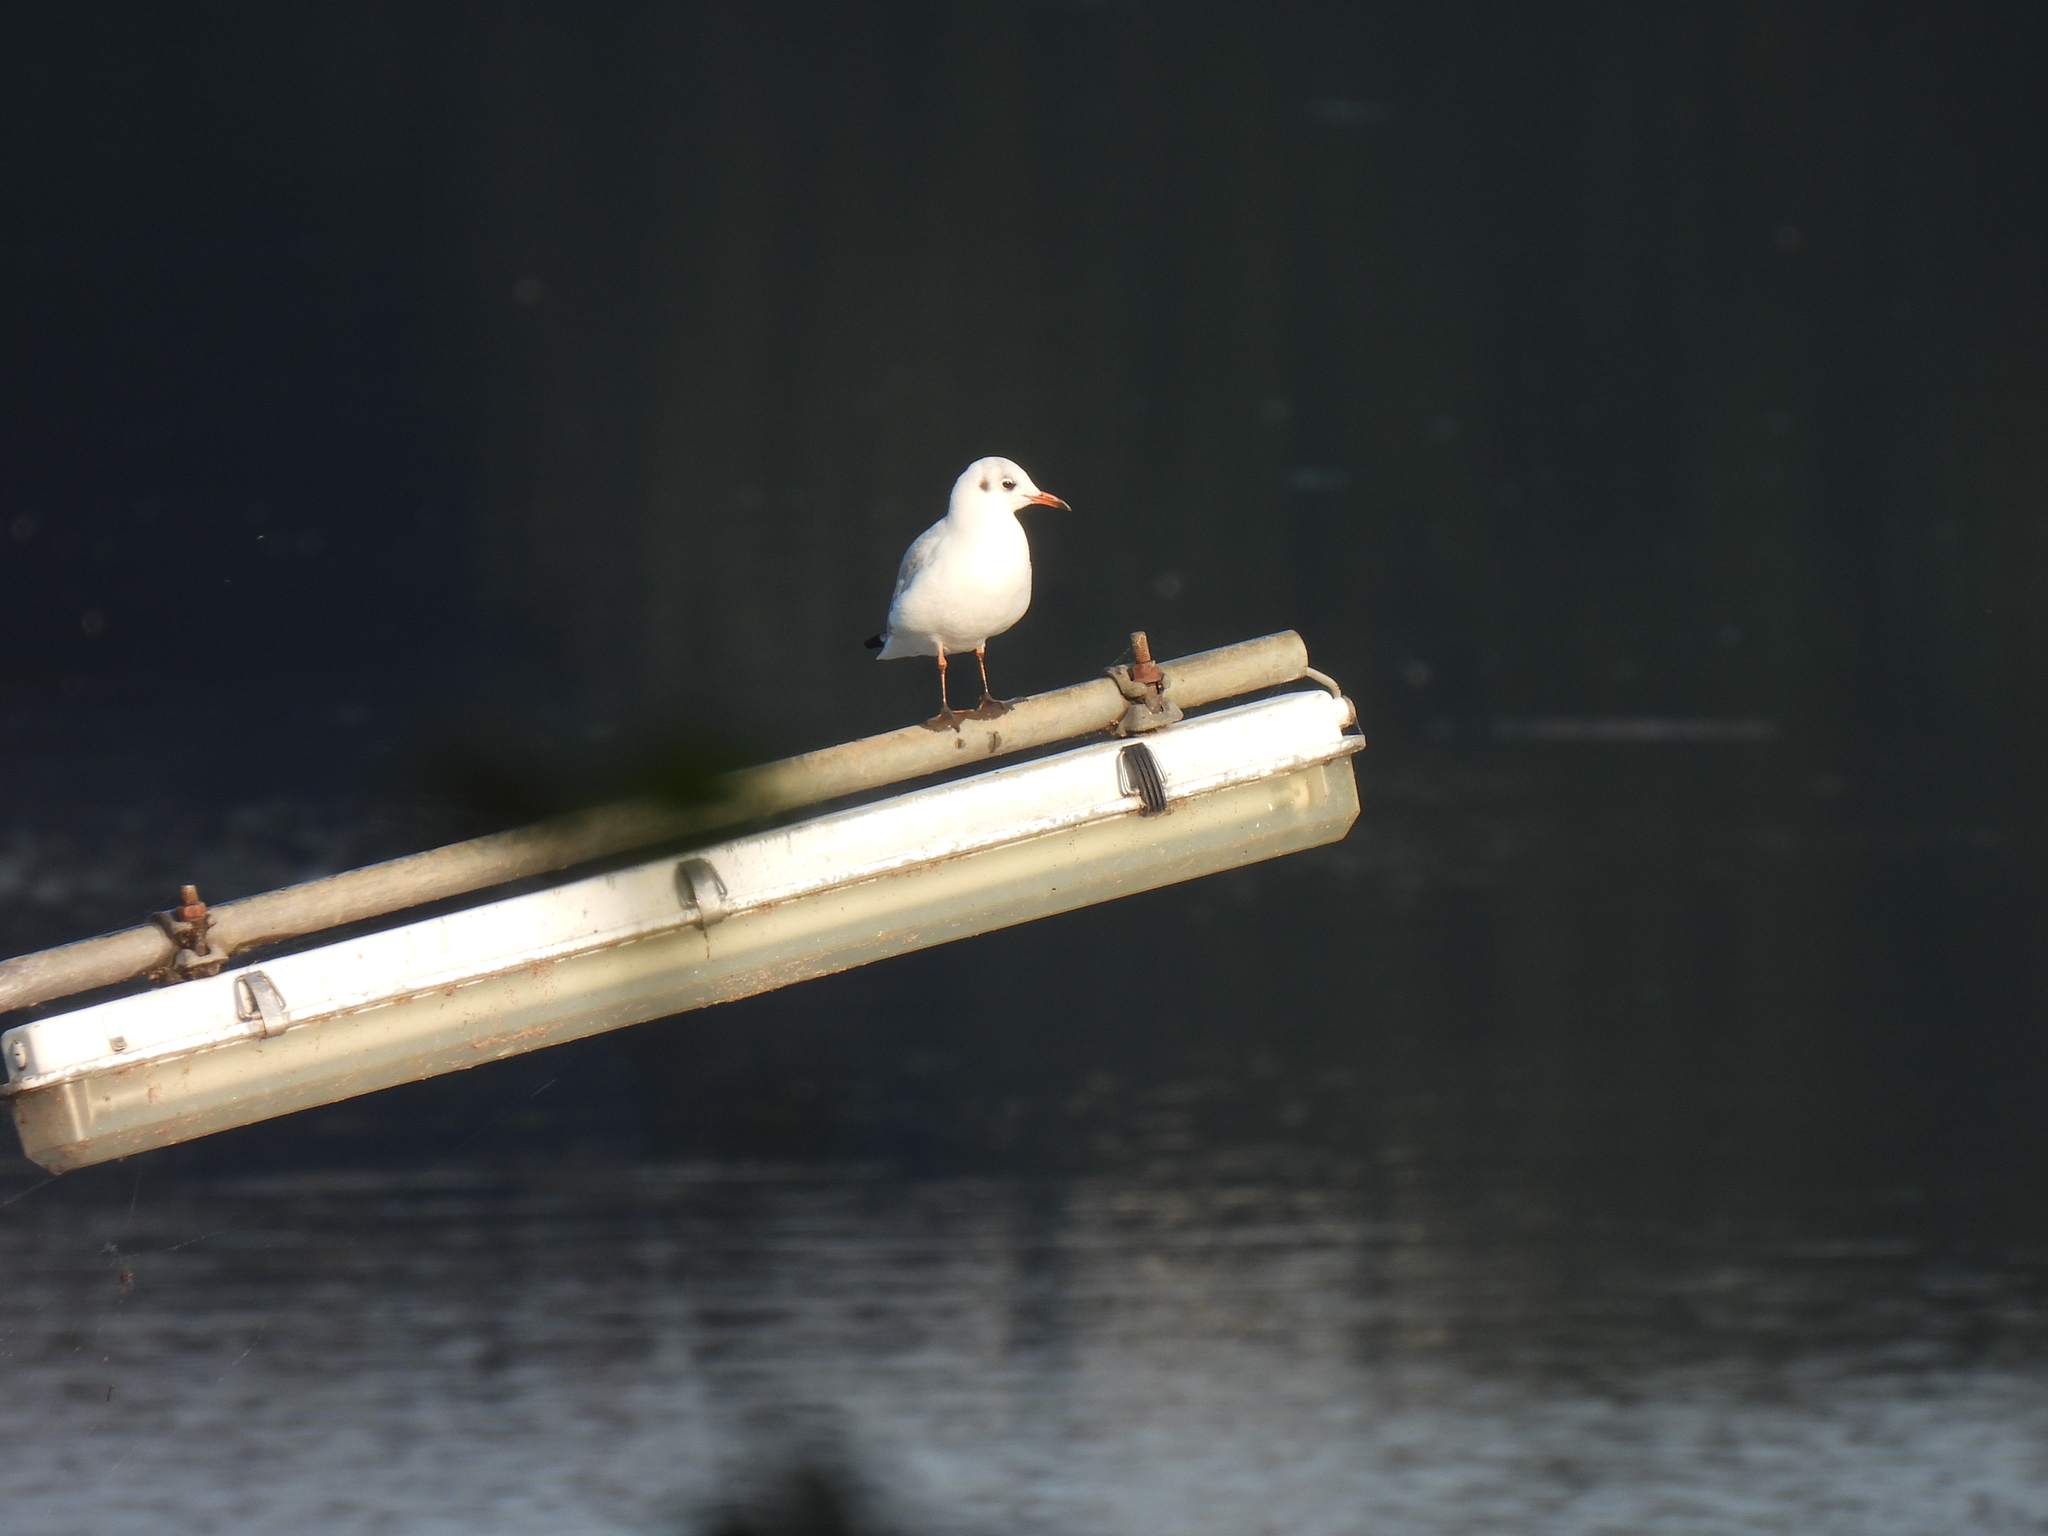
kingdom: Animalia
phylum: Chordata
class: Aves
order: Charadriiformes
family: Laridae
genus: Chroicocephalus
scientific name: Chroicocephalus ridibundus
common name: Black-headed gull
